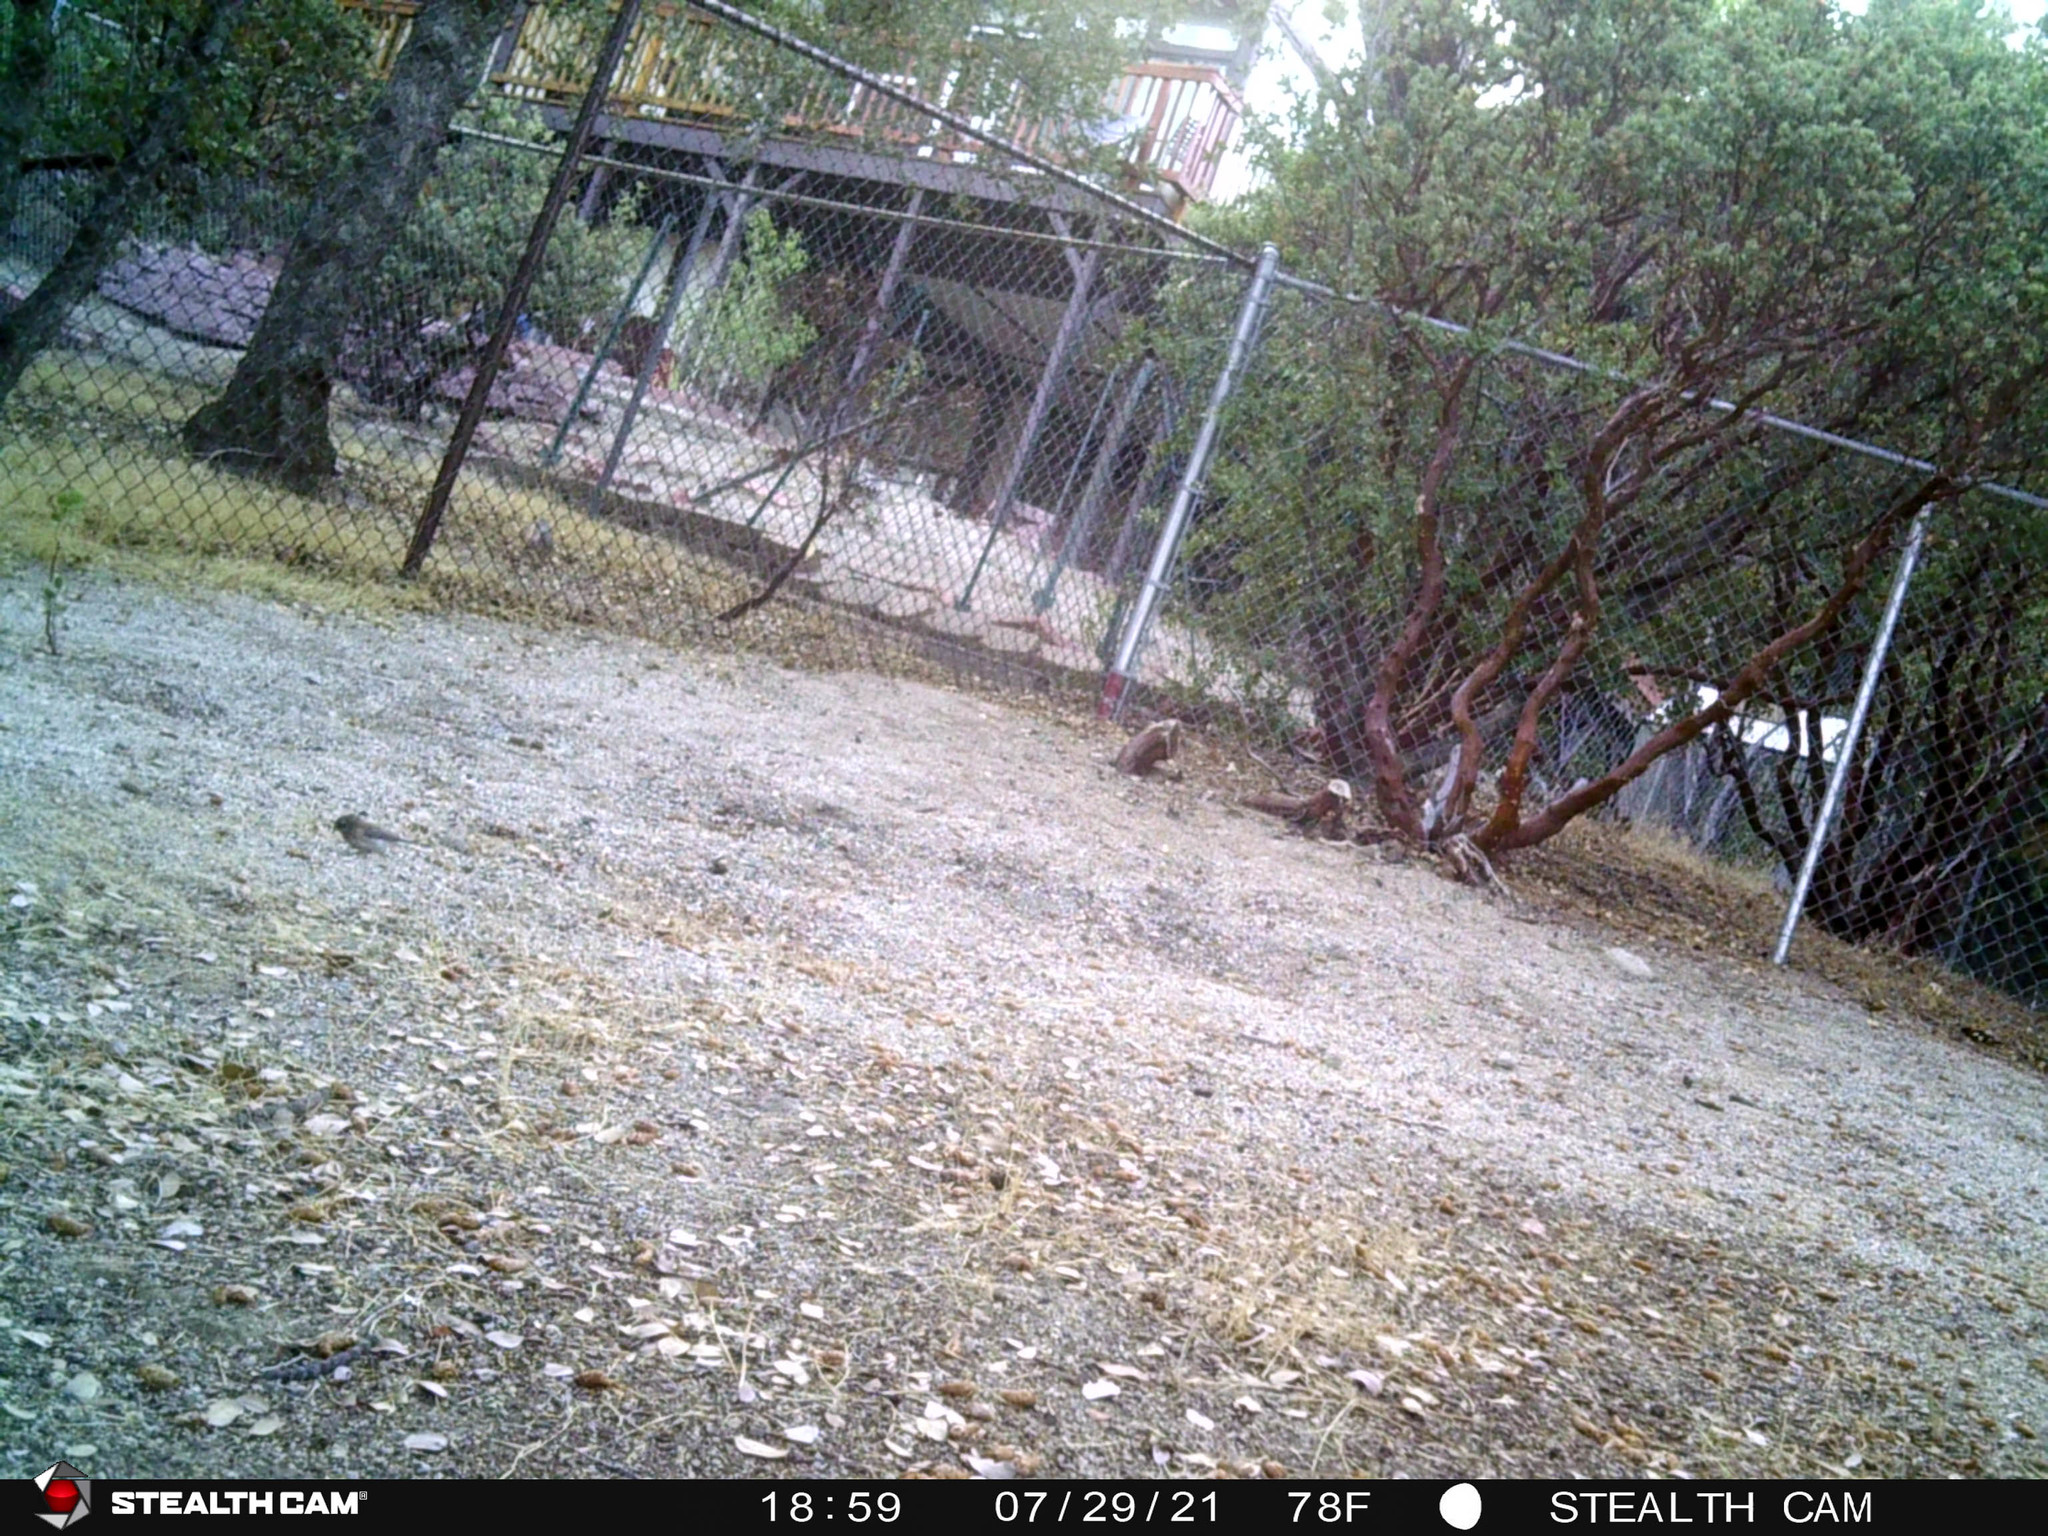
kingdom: Animalia
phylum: Chordata
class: Aves
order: Passeriformes
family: Passerellidae
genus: Junco
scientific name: Junco hyemalis
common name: Dark-eyed junco
